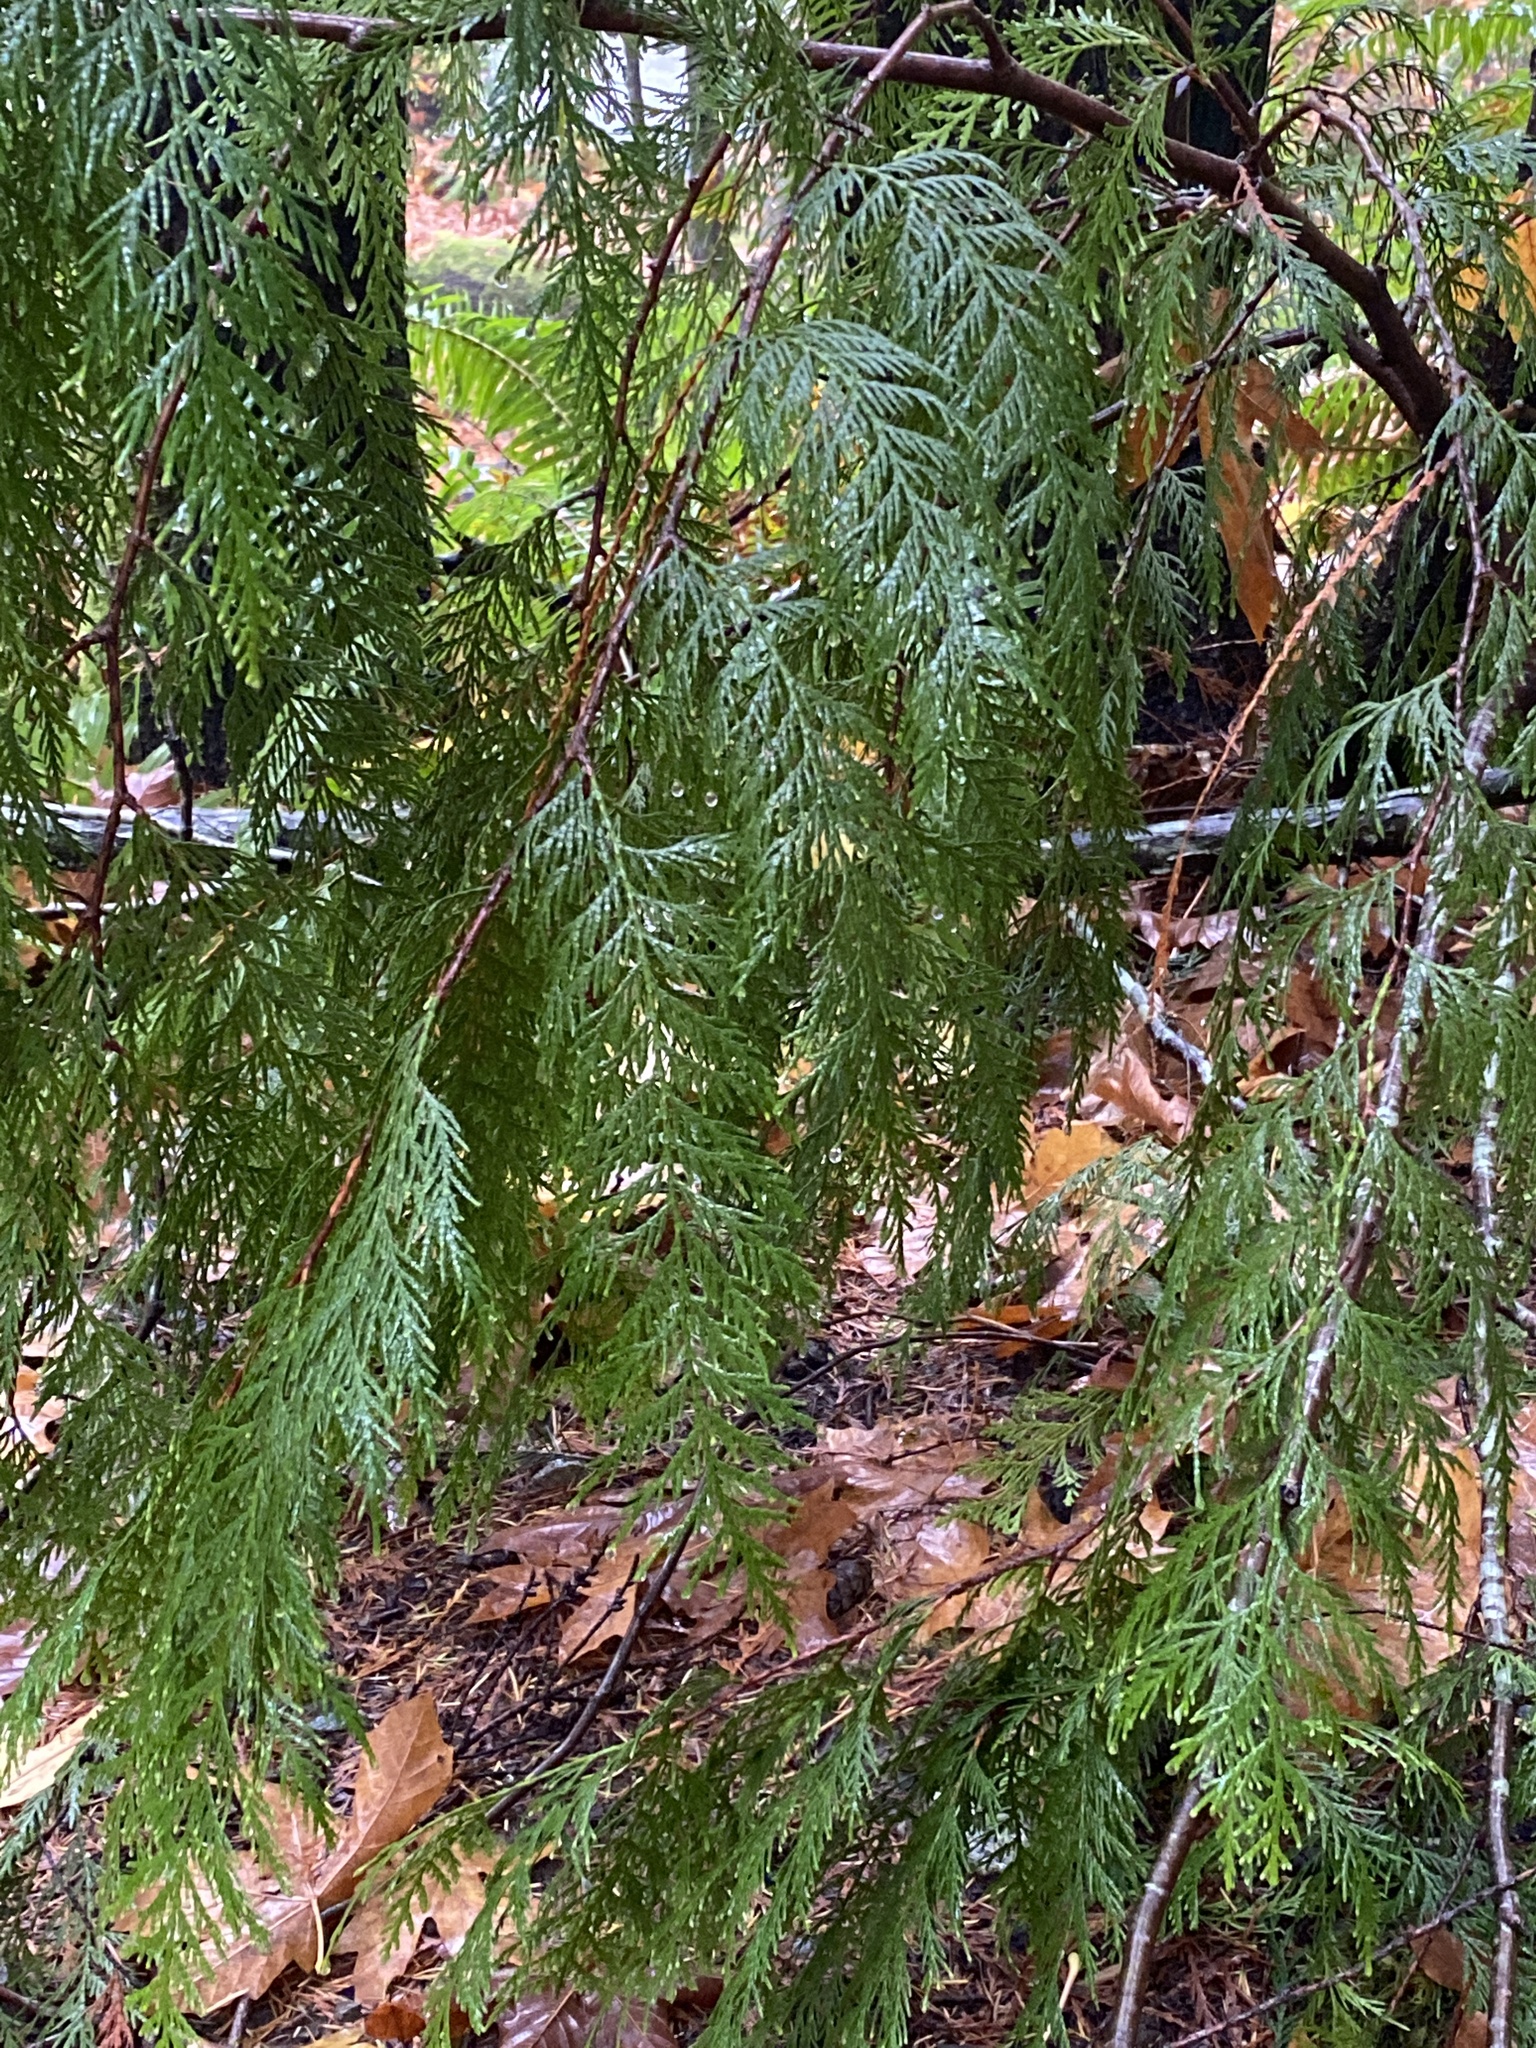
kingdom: Plantae
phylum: Tracheophyta
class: Pinopsida
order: Pinales
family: Cupressaceae
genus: Thuja
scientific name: Thuja plicata
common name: Western red-cedar
